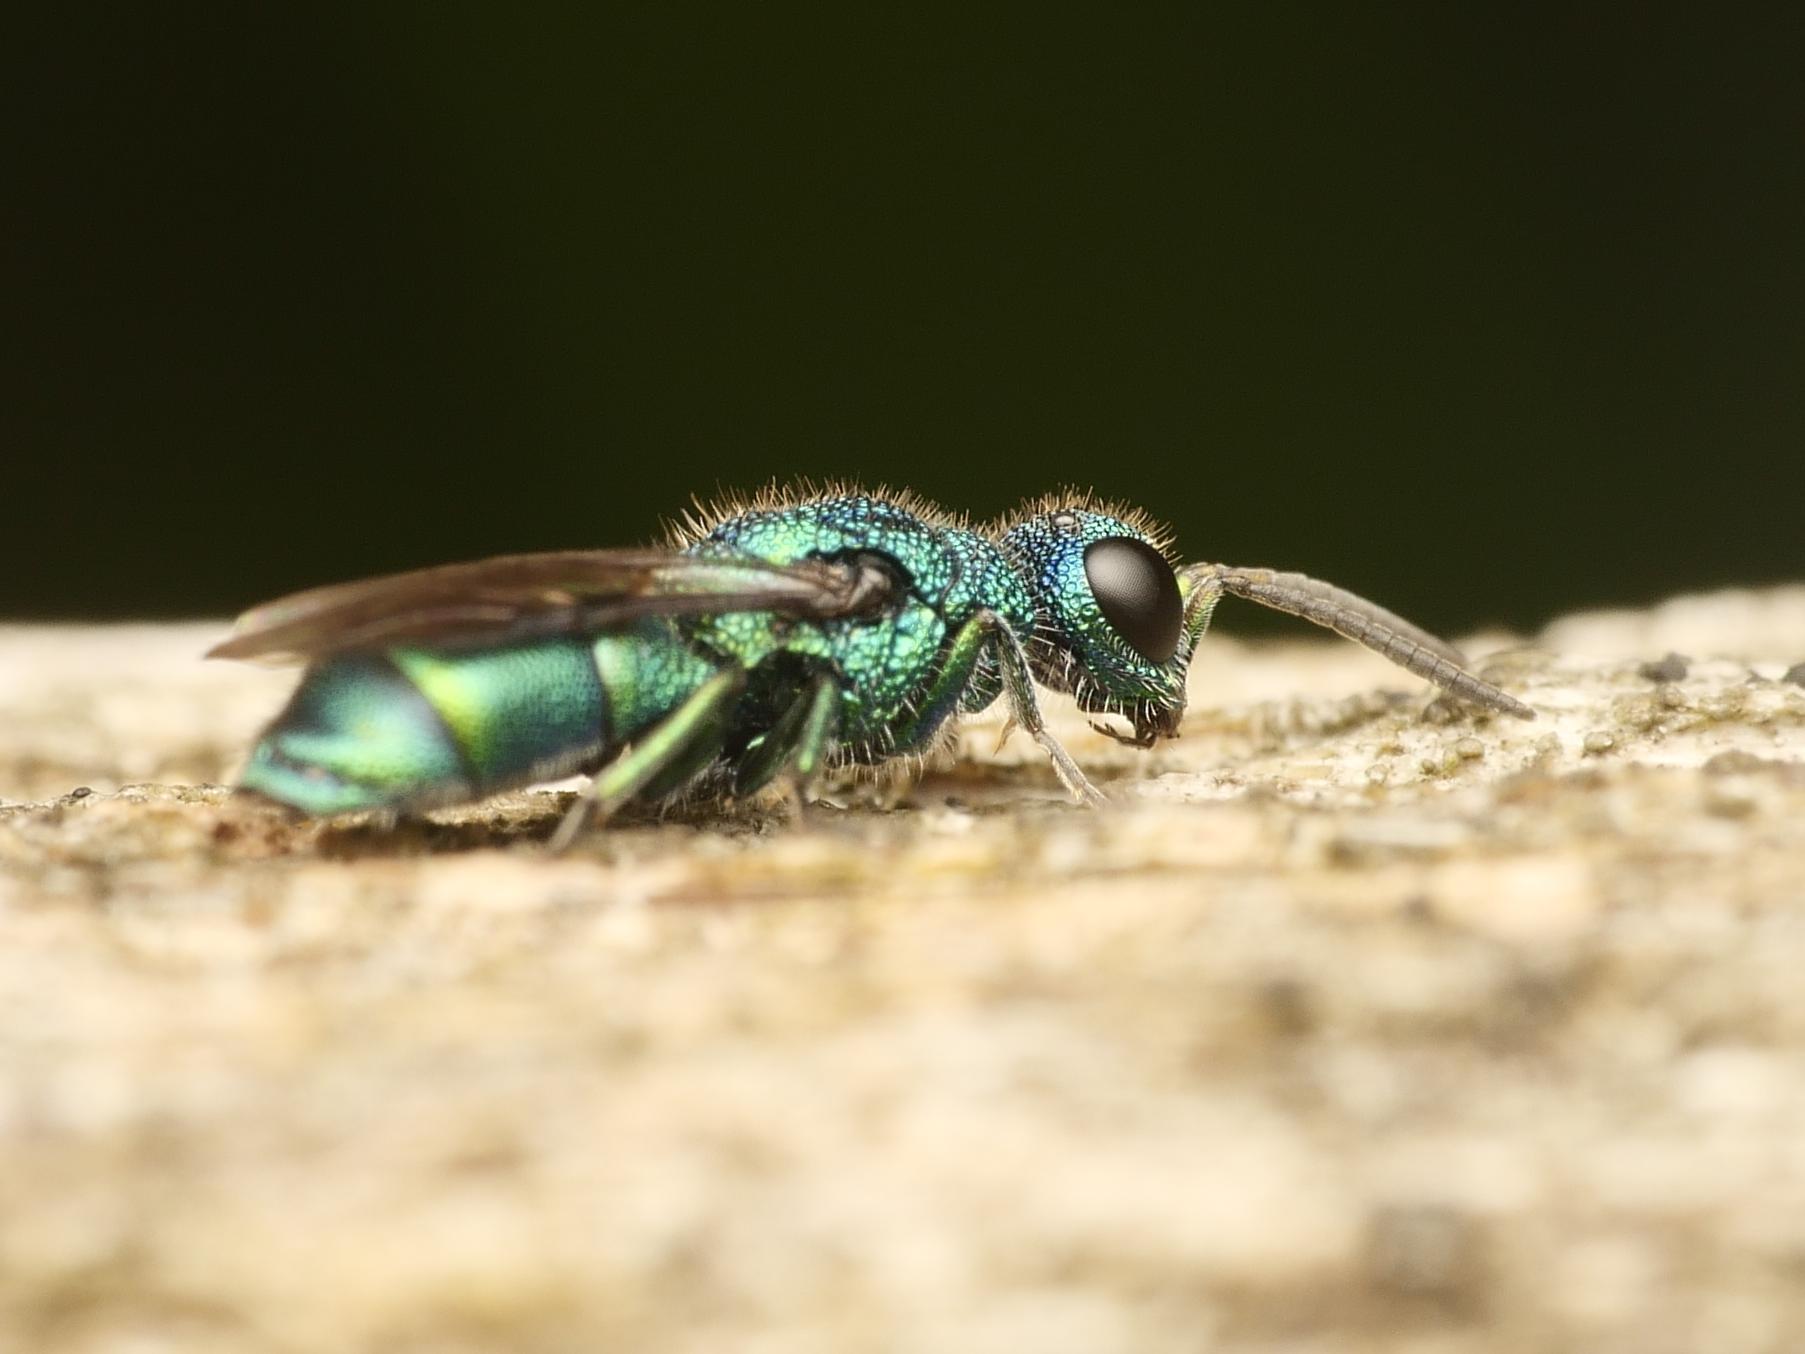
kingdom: Animalia
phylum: Arthropoda
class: Insecta
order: Hymenoptera
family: Pompilidae
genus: Pepsis
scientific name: Pepsis cyanea
